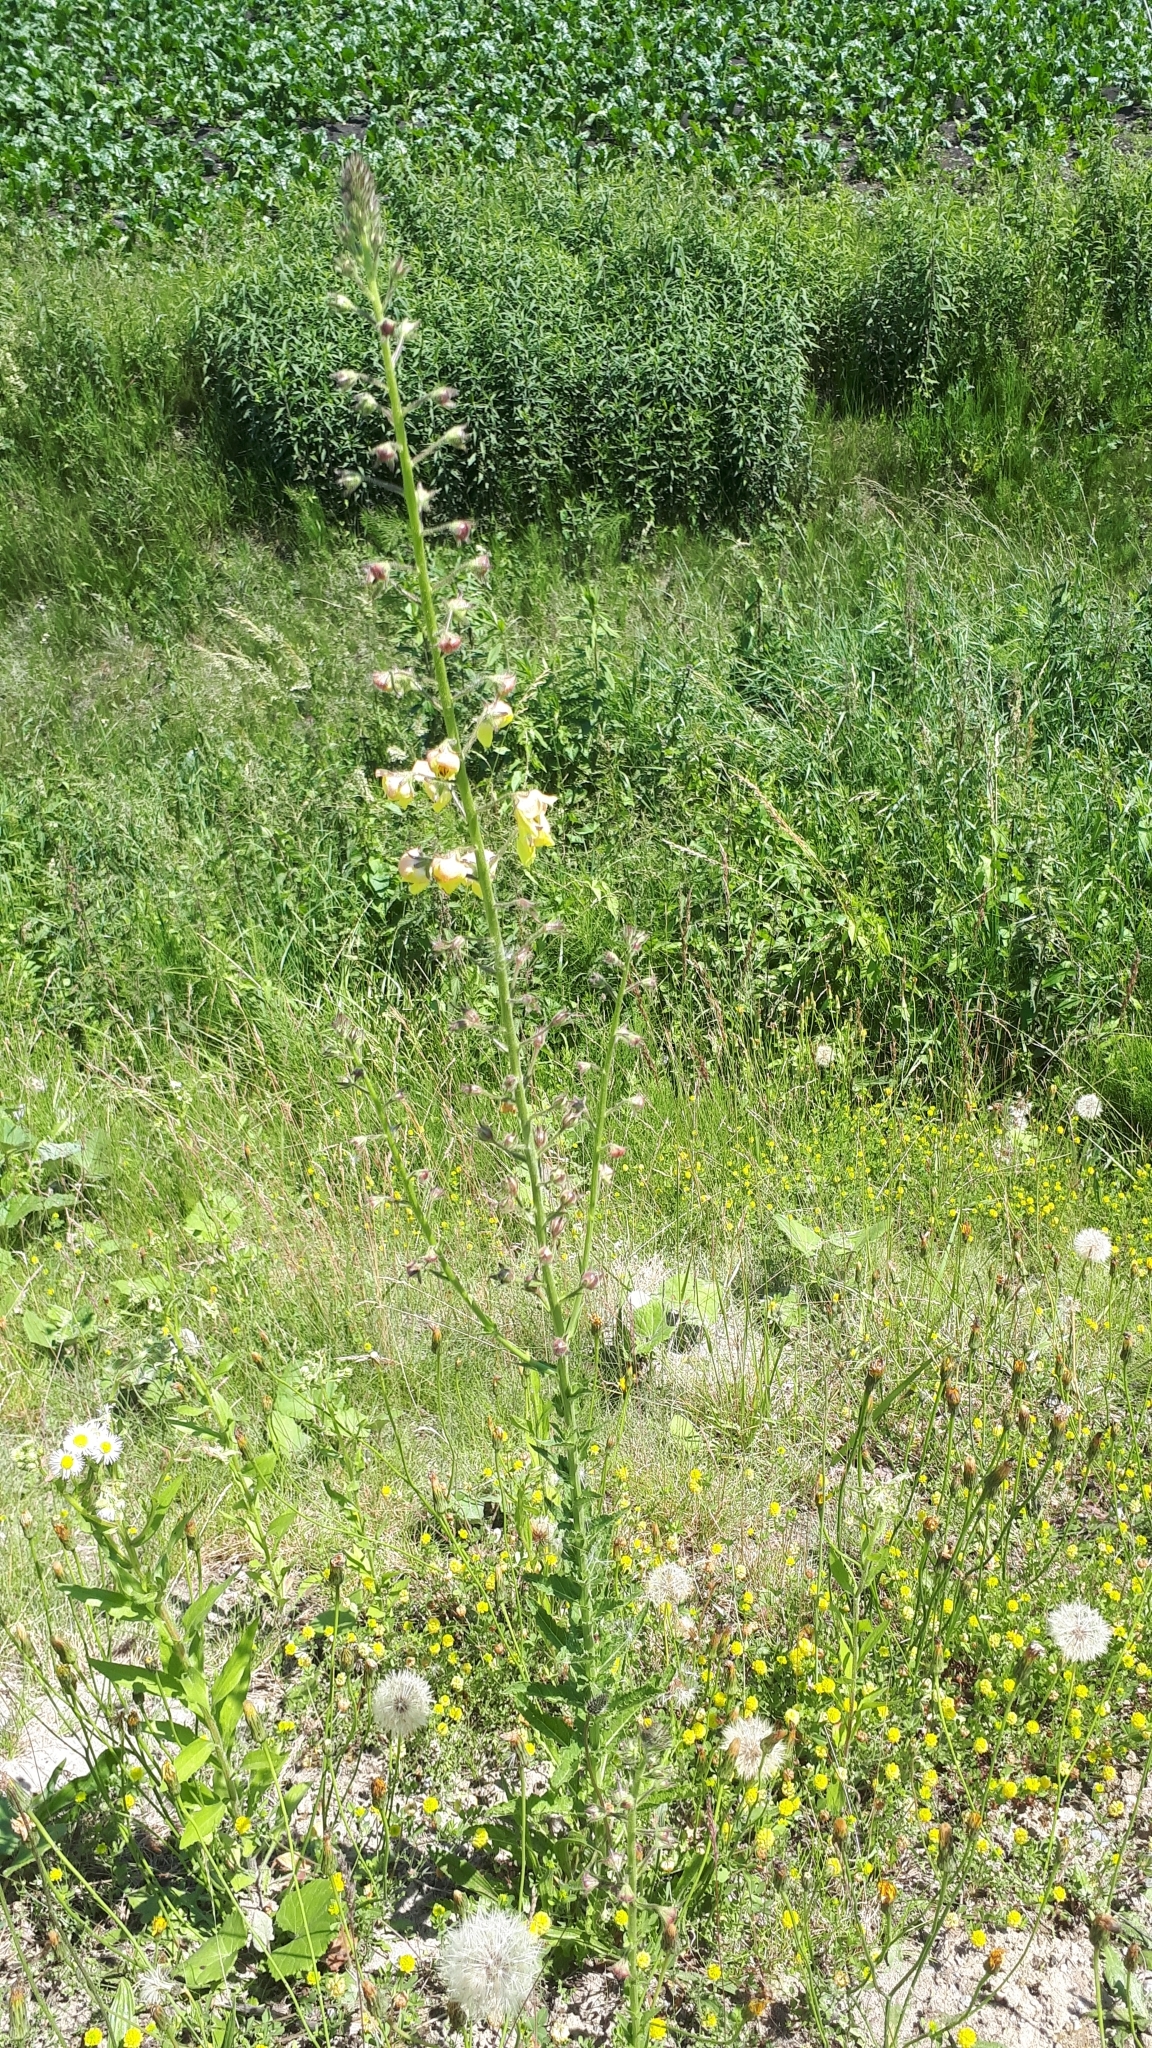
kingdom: Plantae
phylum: Tracheophyta
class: Magnoliopsida
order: Lamiales
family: Scrophulariaceae
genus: Verbascum
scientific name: Verbascum blattaria
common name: Moth mullein
